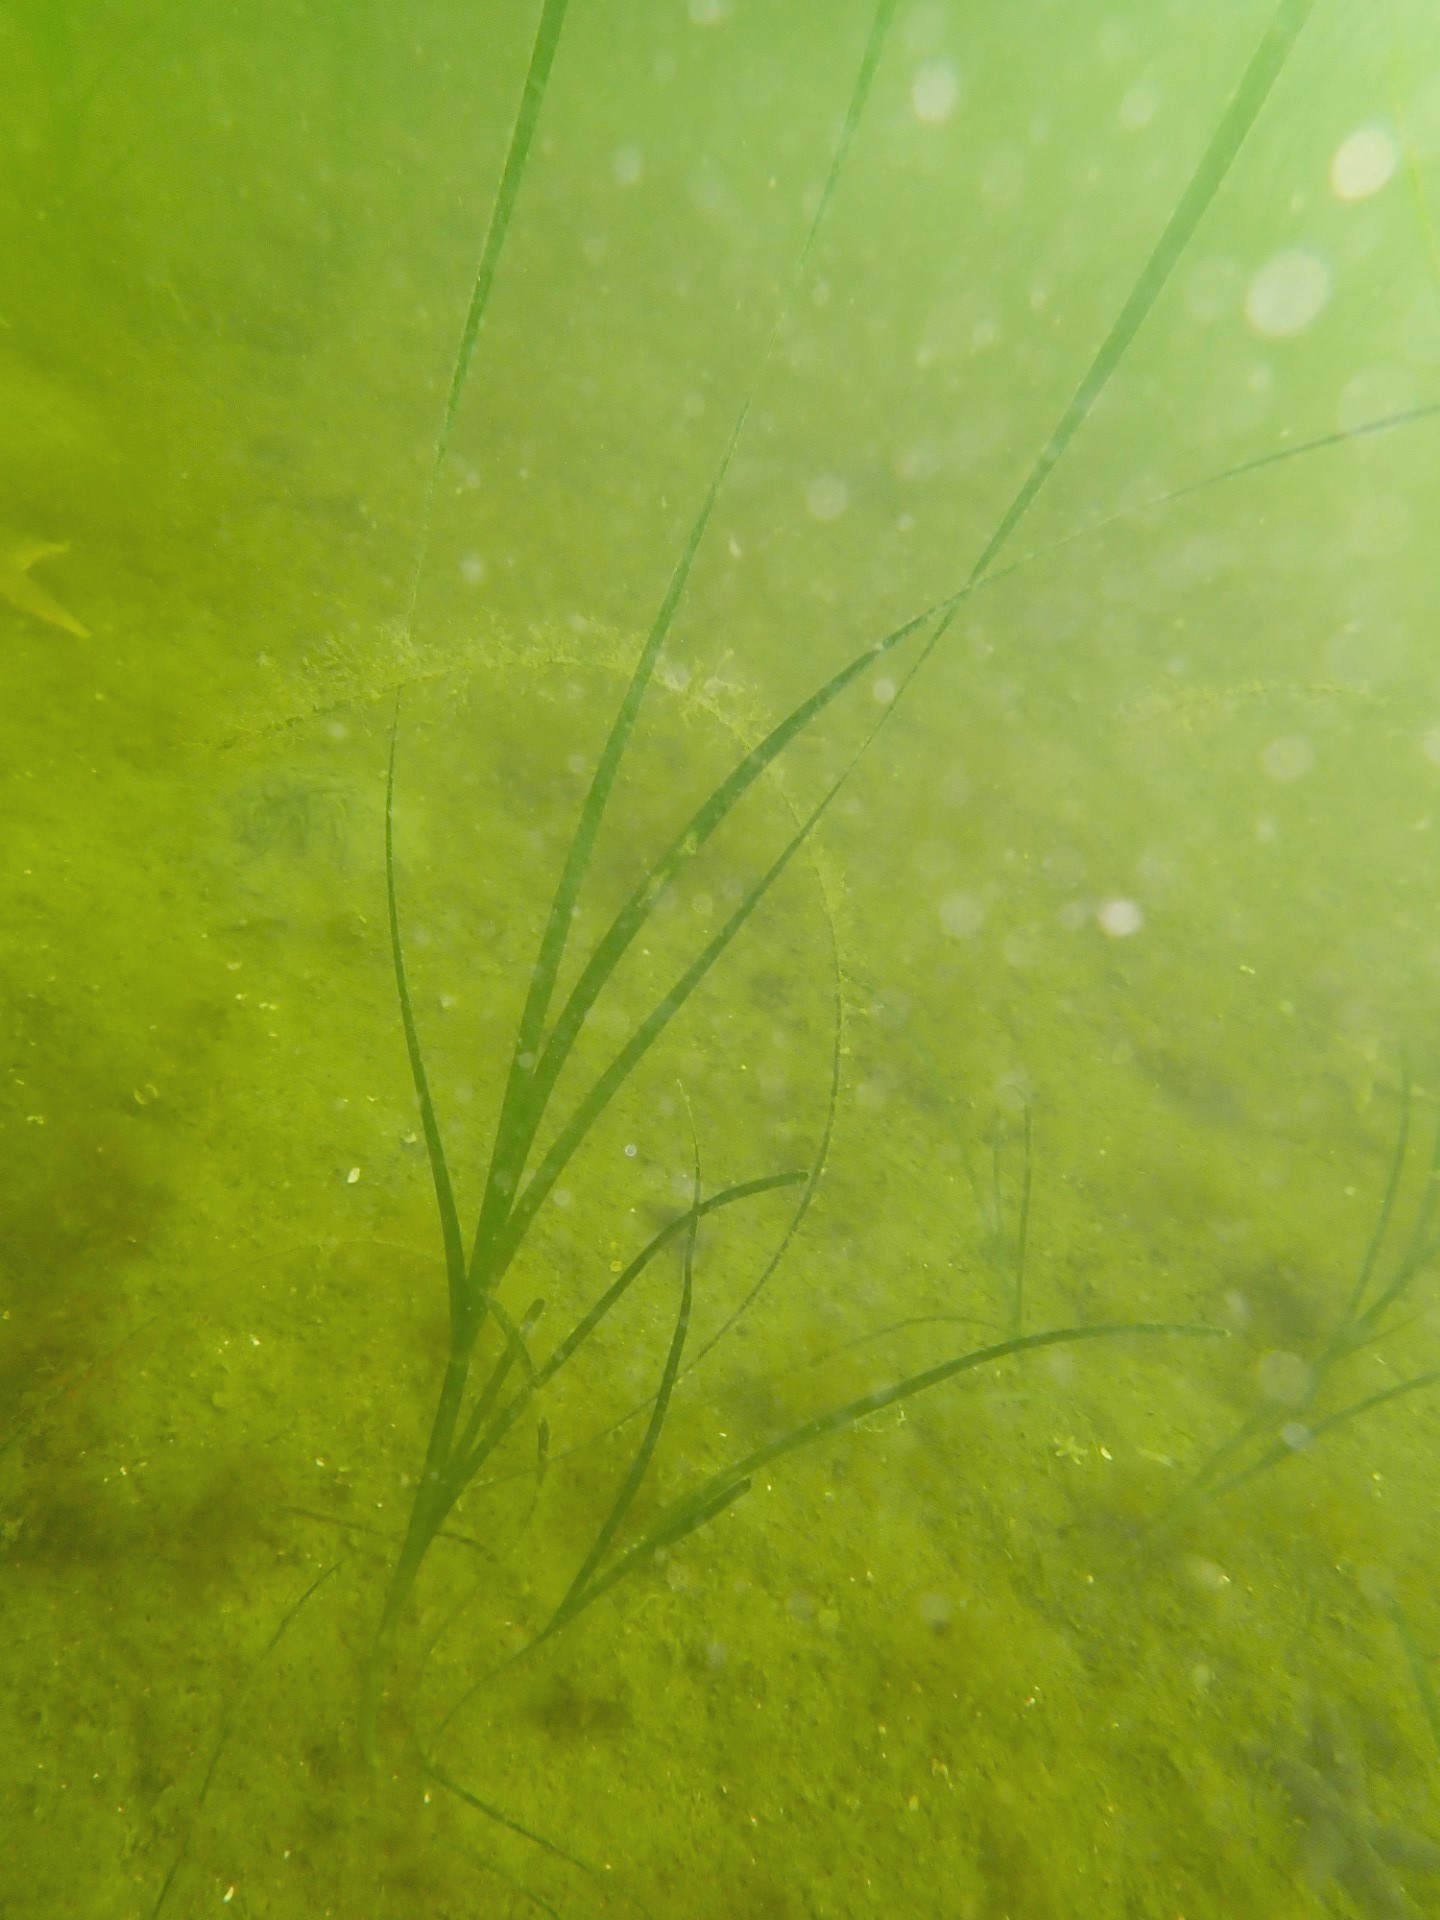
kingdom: Plantae
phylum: Tracheophyta
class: Liliopsida
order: Alismatales
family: Zosteraceae
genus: Zostera
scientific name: Zostera marina
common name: Eelgrass
